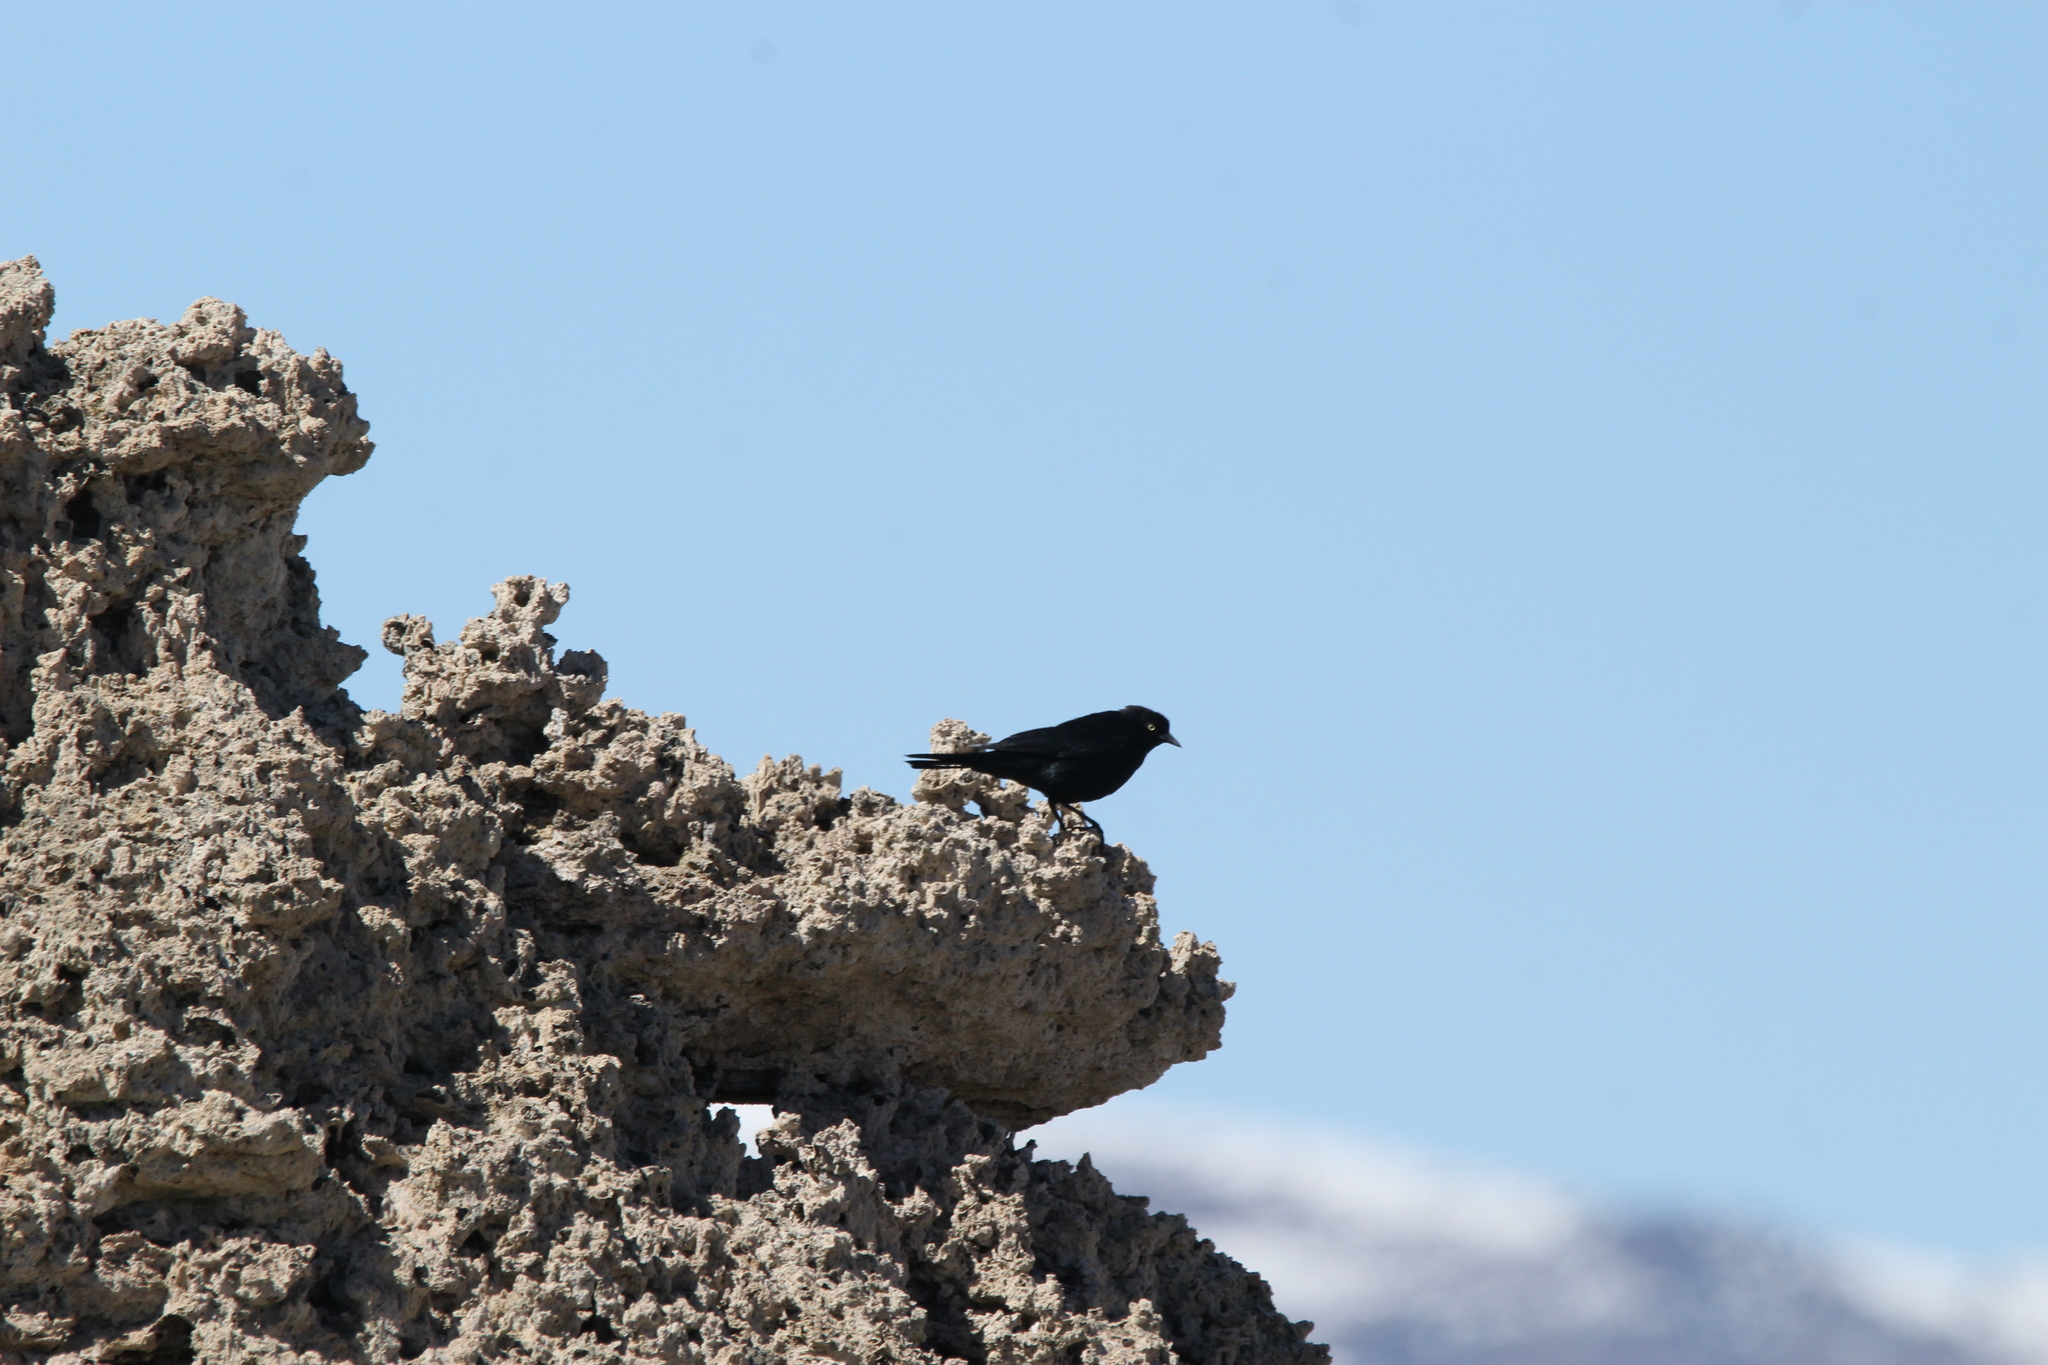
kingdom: Animalia
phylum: Chordata
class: Aves
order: Passeriformes
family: Icteridae
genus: Euphagus
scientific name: Euphagus cyanocephalus
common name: Brewer's blackbird
